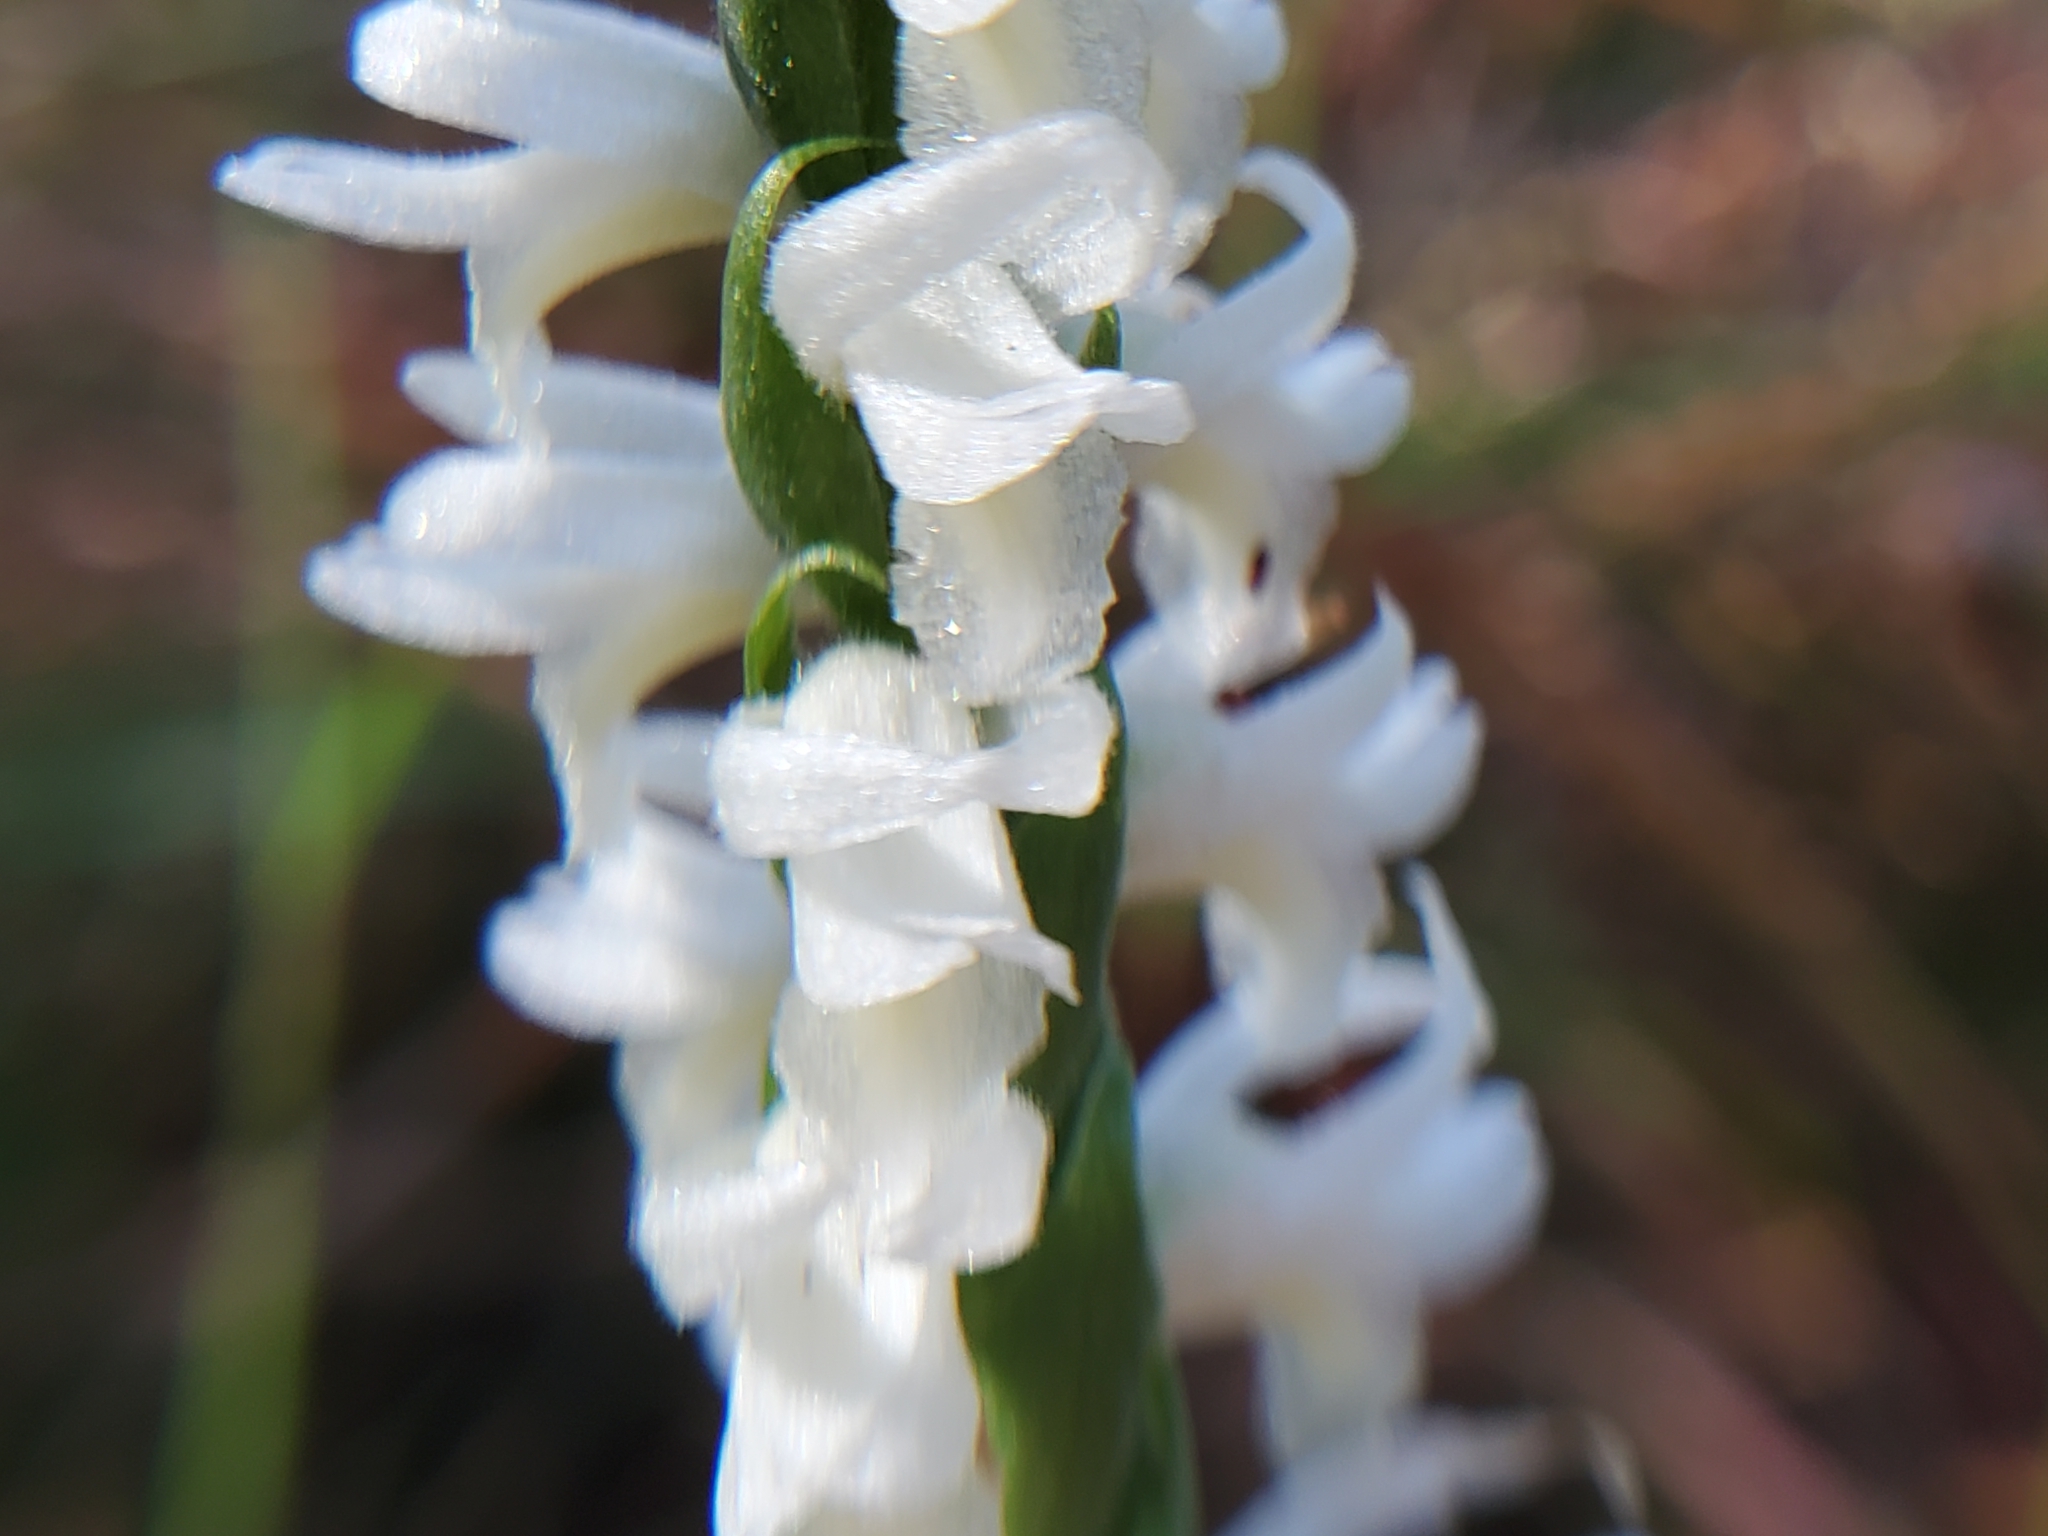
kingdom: Plantae
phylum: Tracheophyta
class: Liliopsida
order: Asparagales
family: Orchidaceae
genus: Spiranthes
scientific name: Spiranthes magnicamporum
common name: Great plains ladies'-tresses
